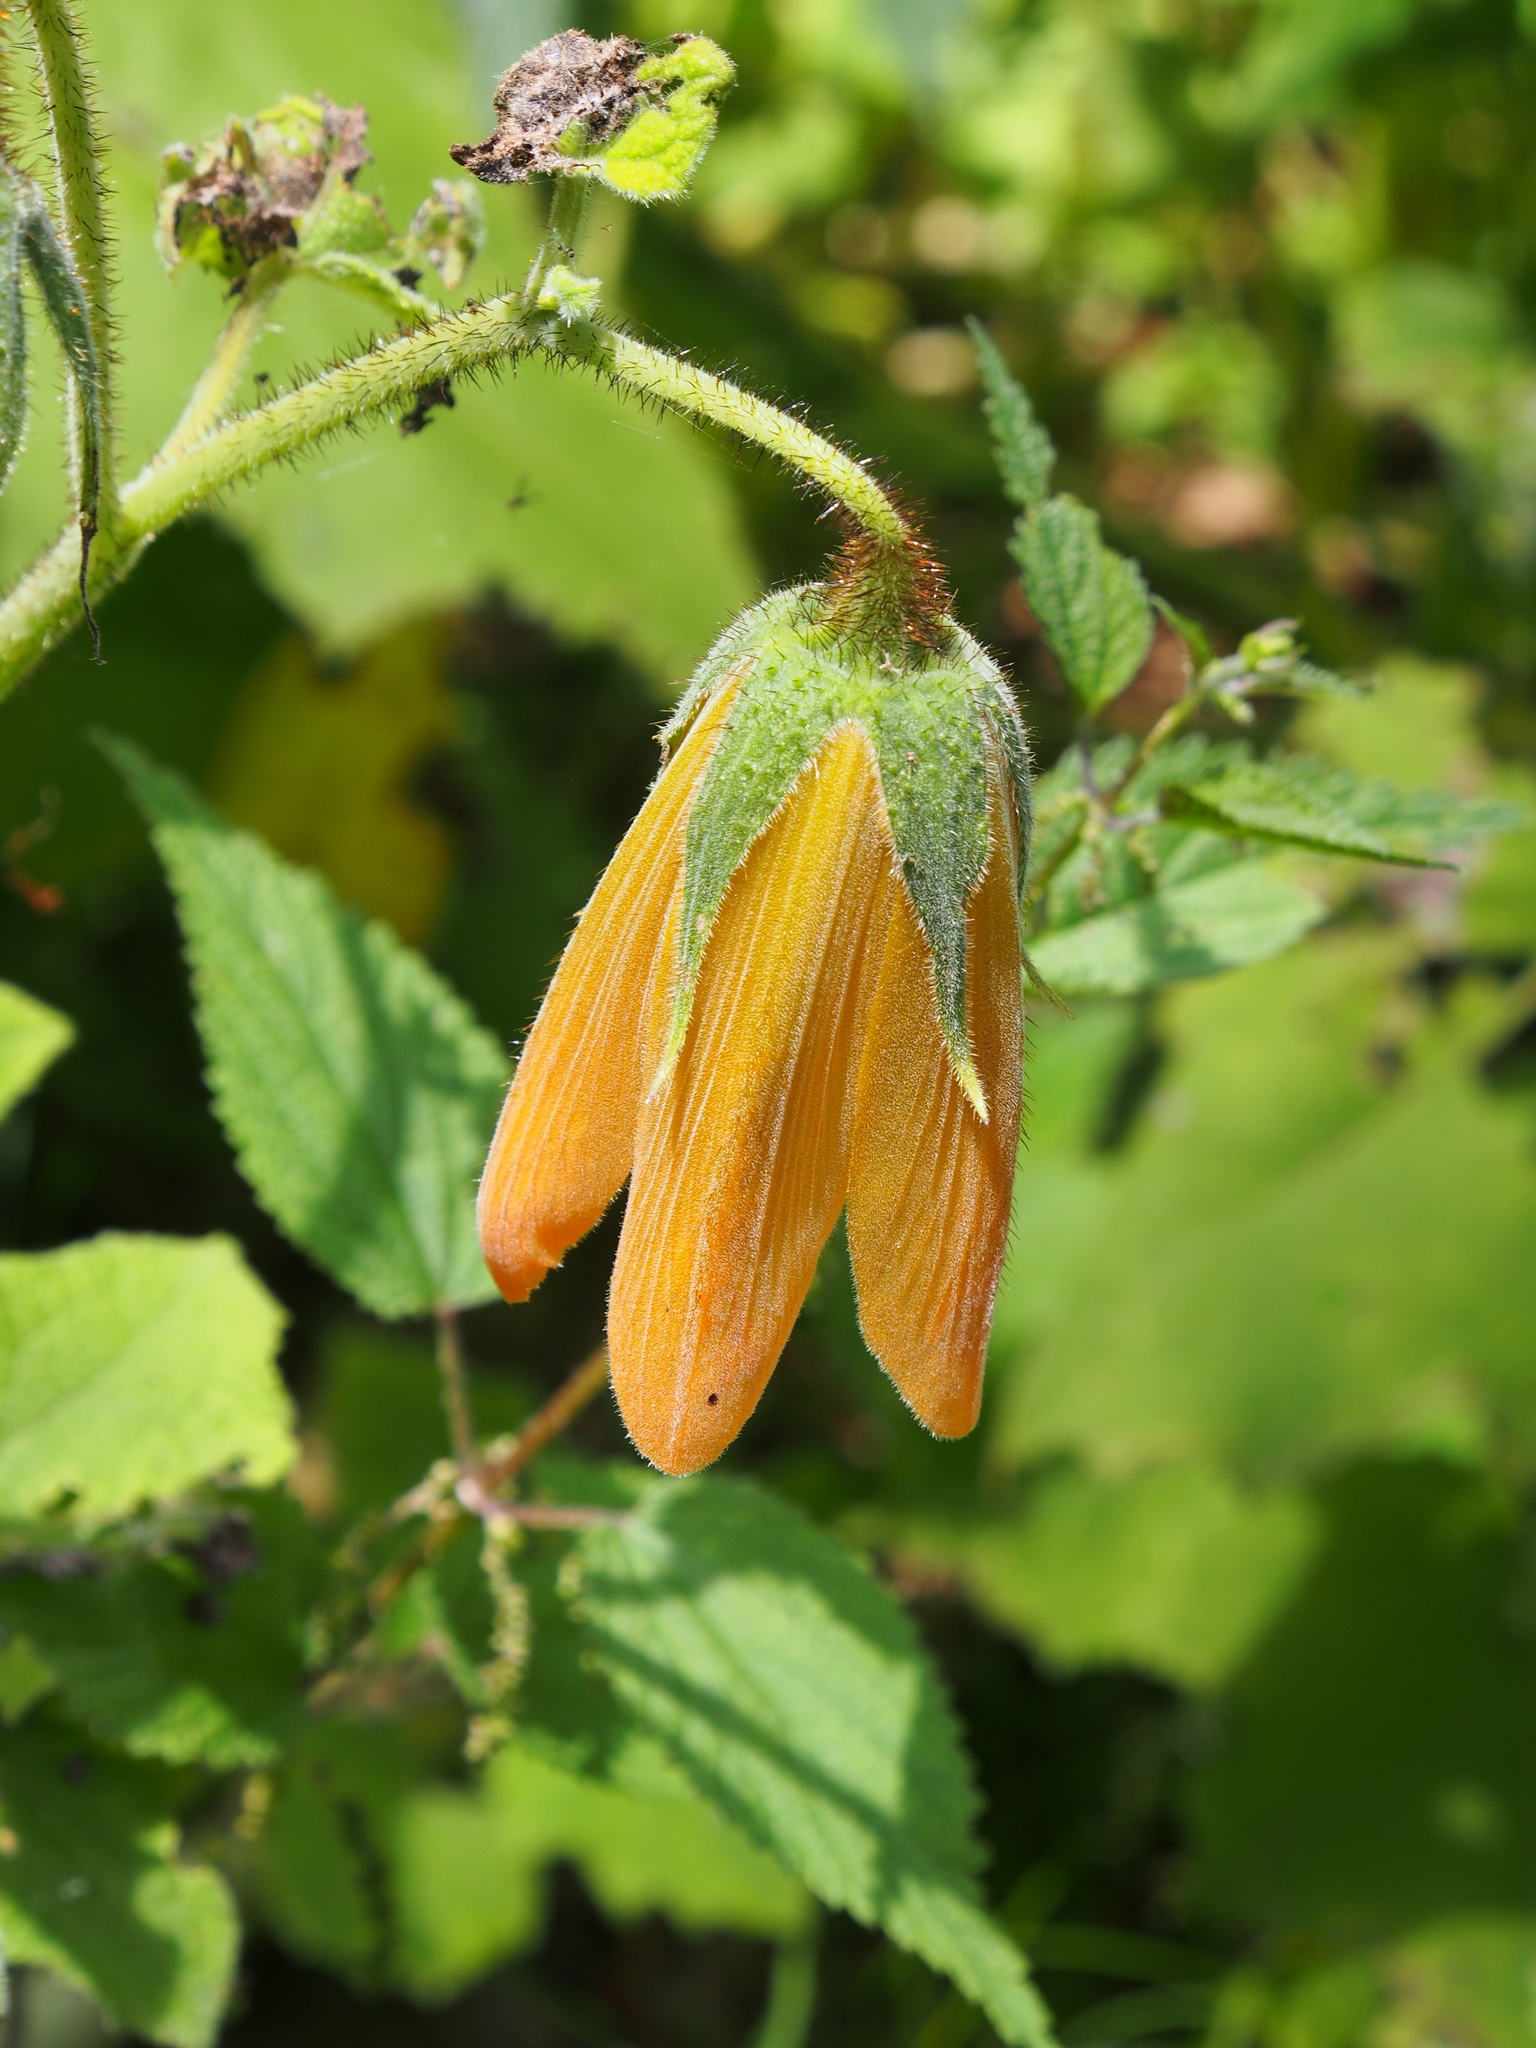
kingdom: Plantae
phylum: Tracheophyta
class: Magnoliopsida
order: Cornales
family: Loasaceae
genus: Nasa
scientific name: Nasa speciosa
